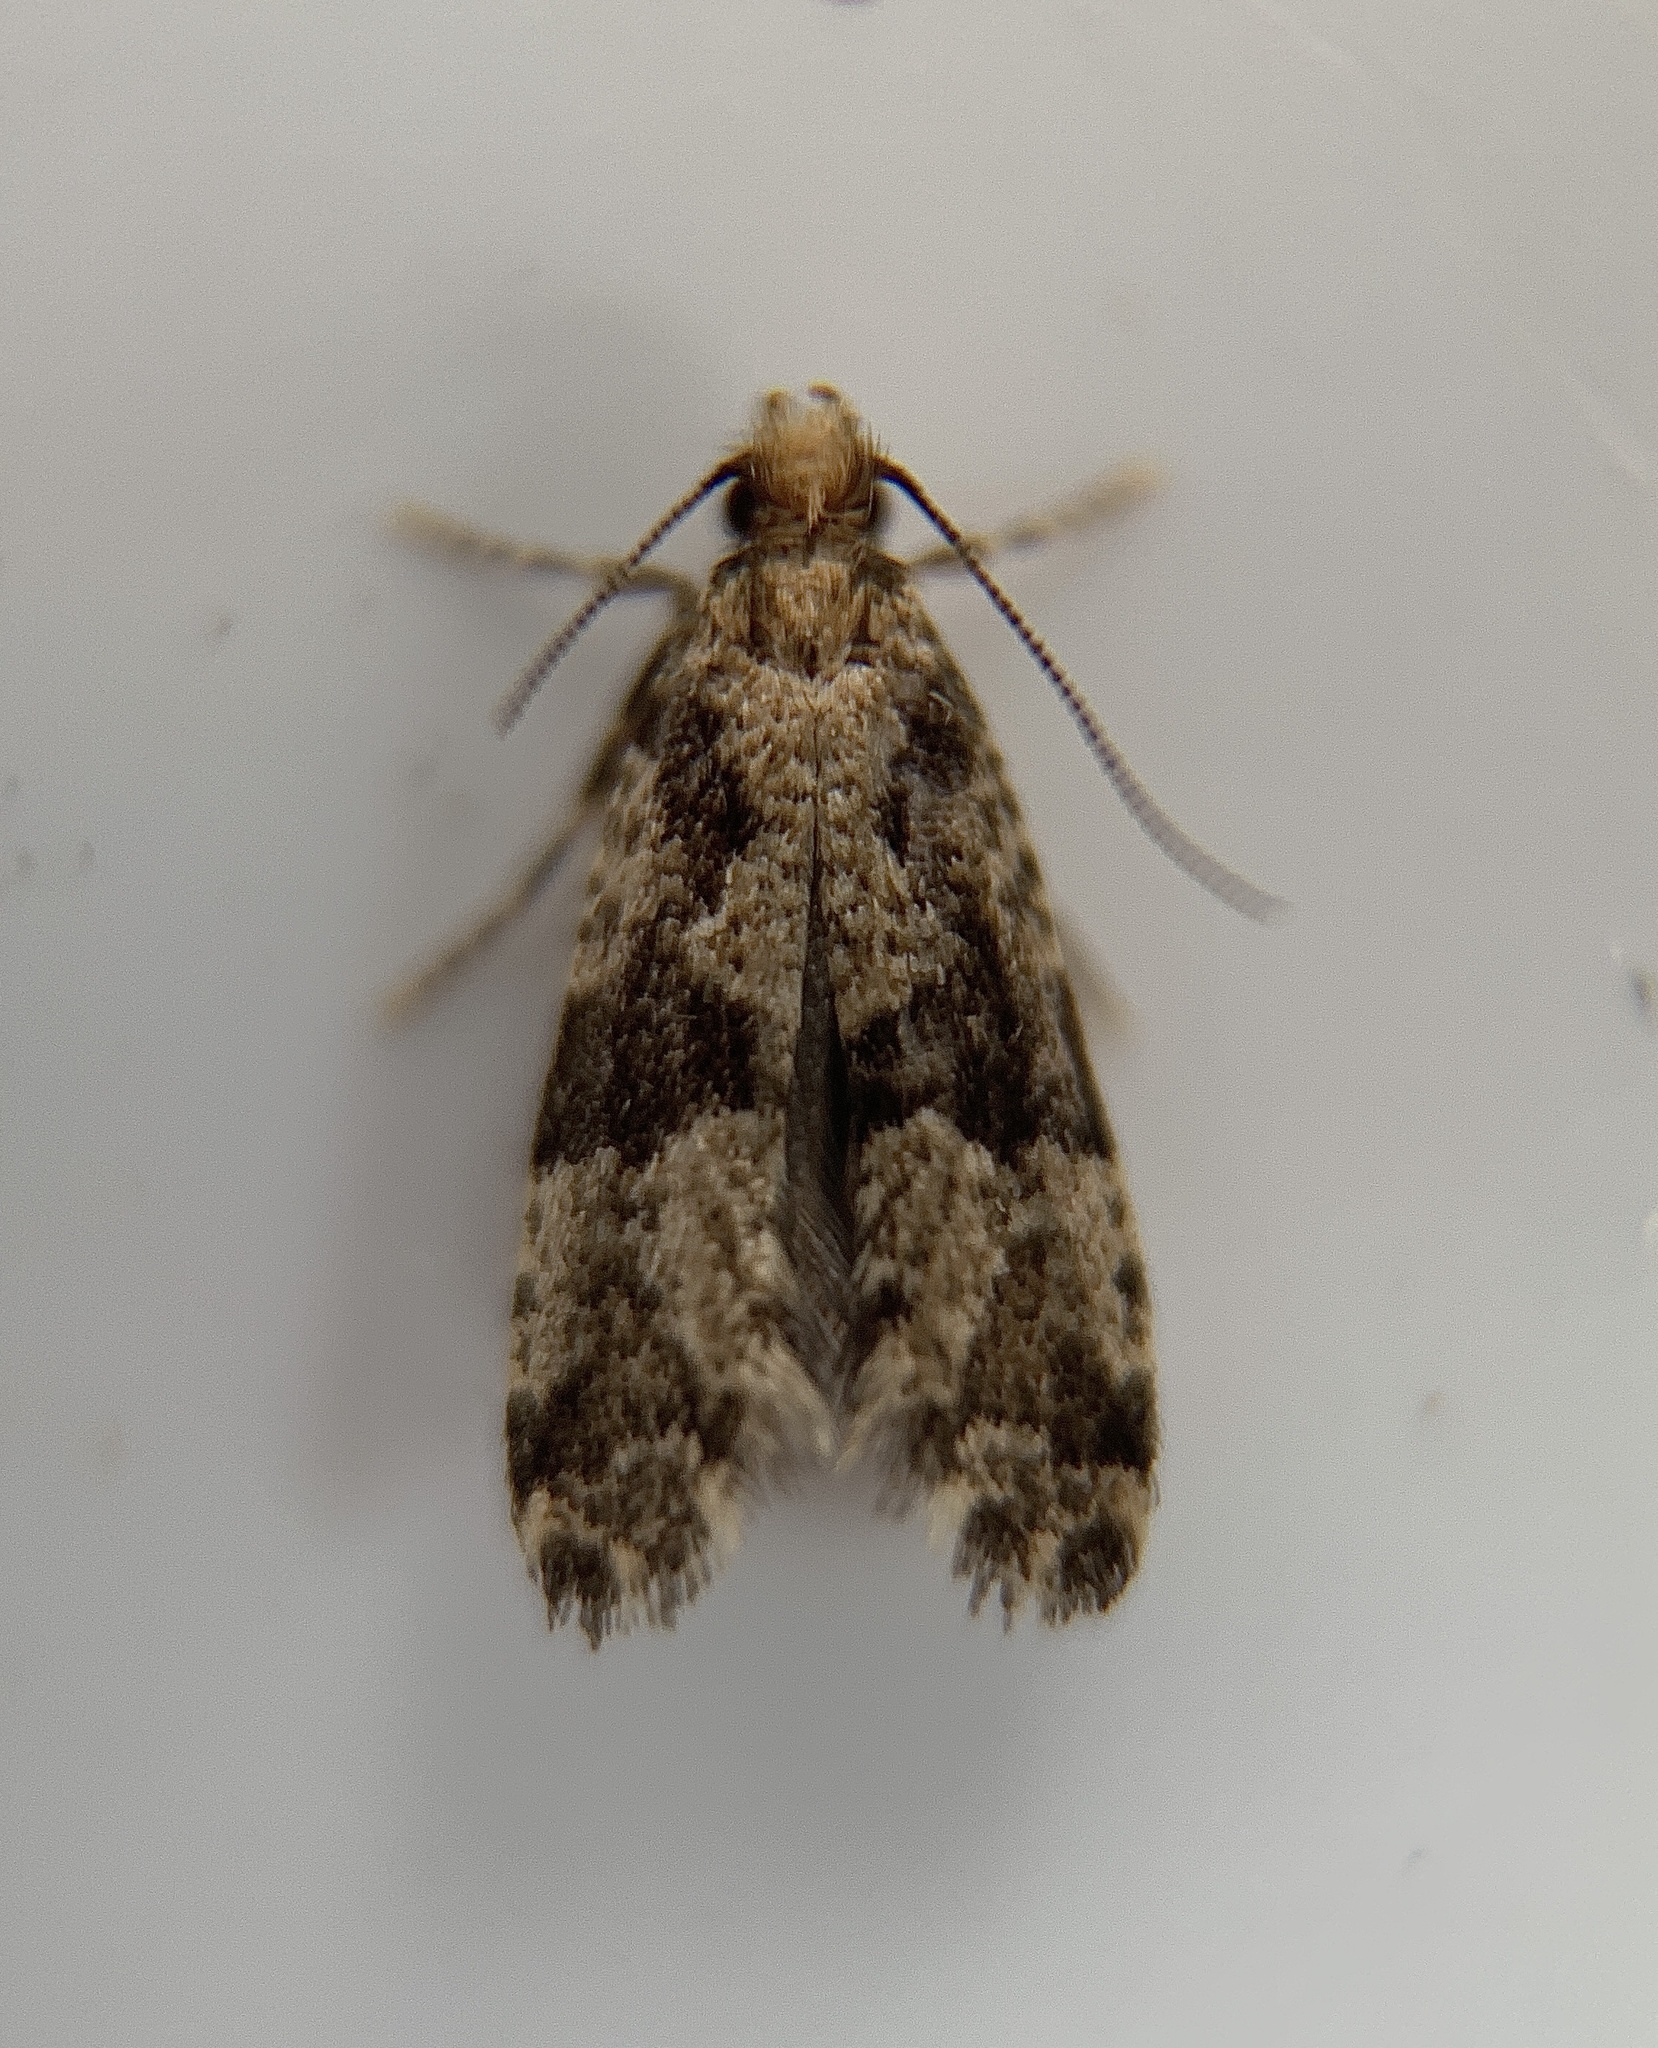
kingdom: Animalia
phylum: Arthropoda
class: Insecta
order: Lepidoptera
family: Tineidae
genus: Scardiella
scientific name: Scardiella approximatella
